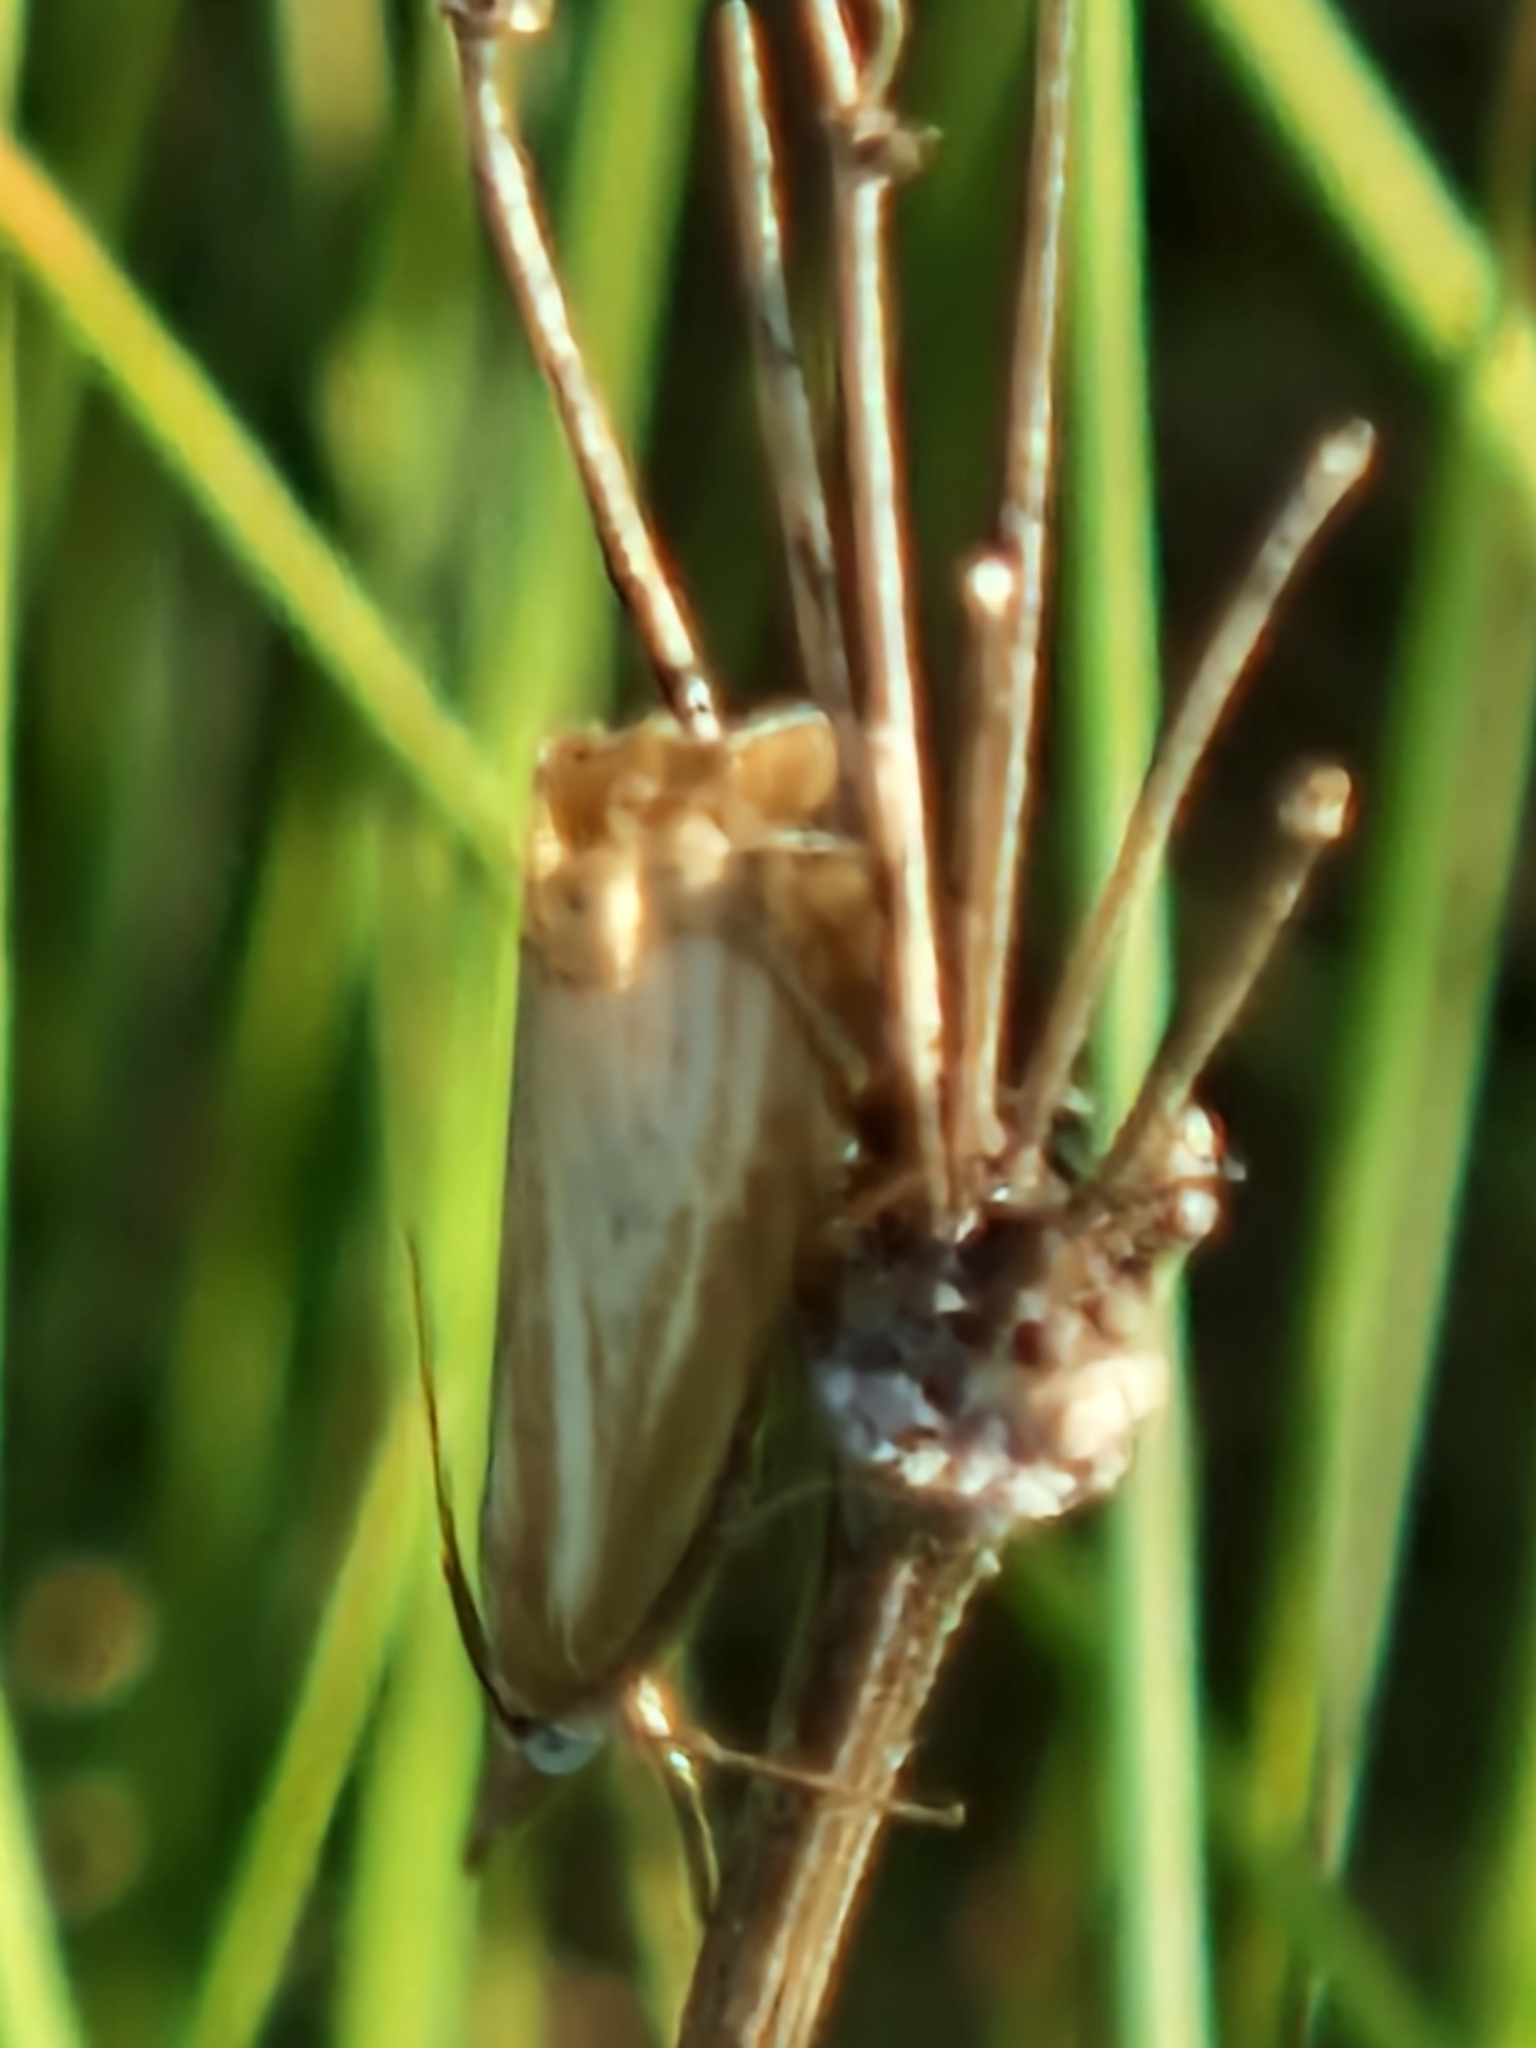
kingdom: Animalia
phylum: Arthropoda
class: Insecta
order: Lepidoptera
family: Crambidae
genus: Chrysoteuchia
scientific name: Chrysoteuchia culmella
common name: Garden grass-veneer
